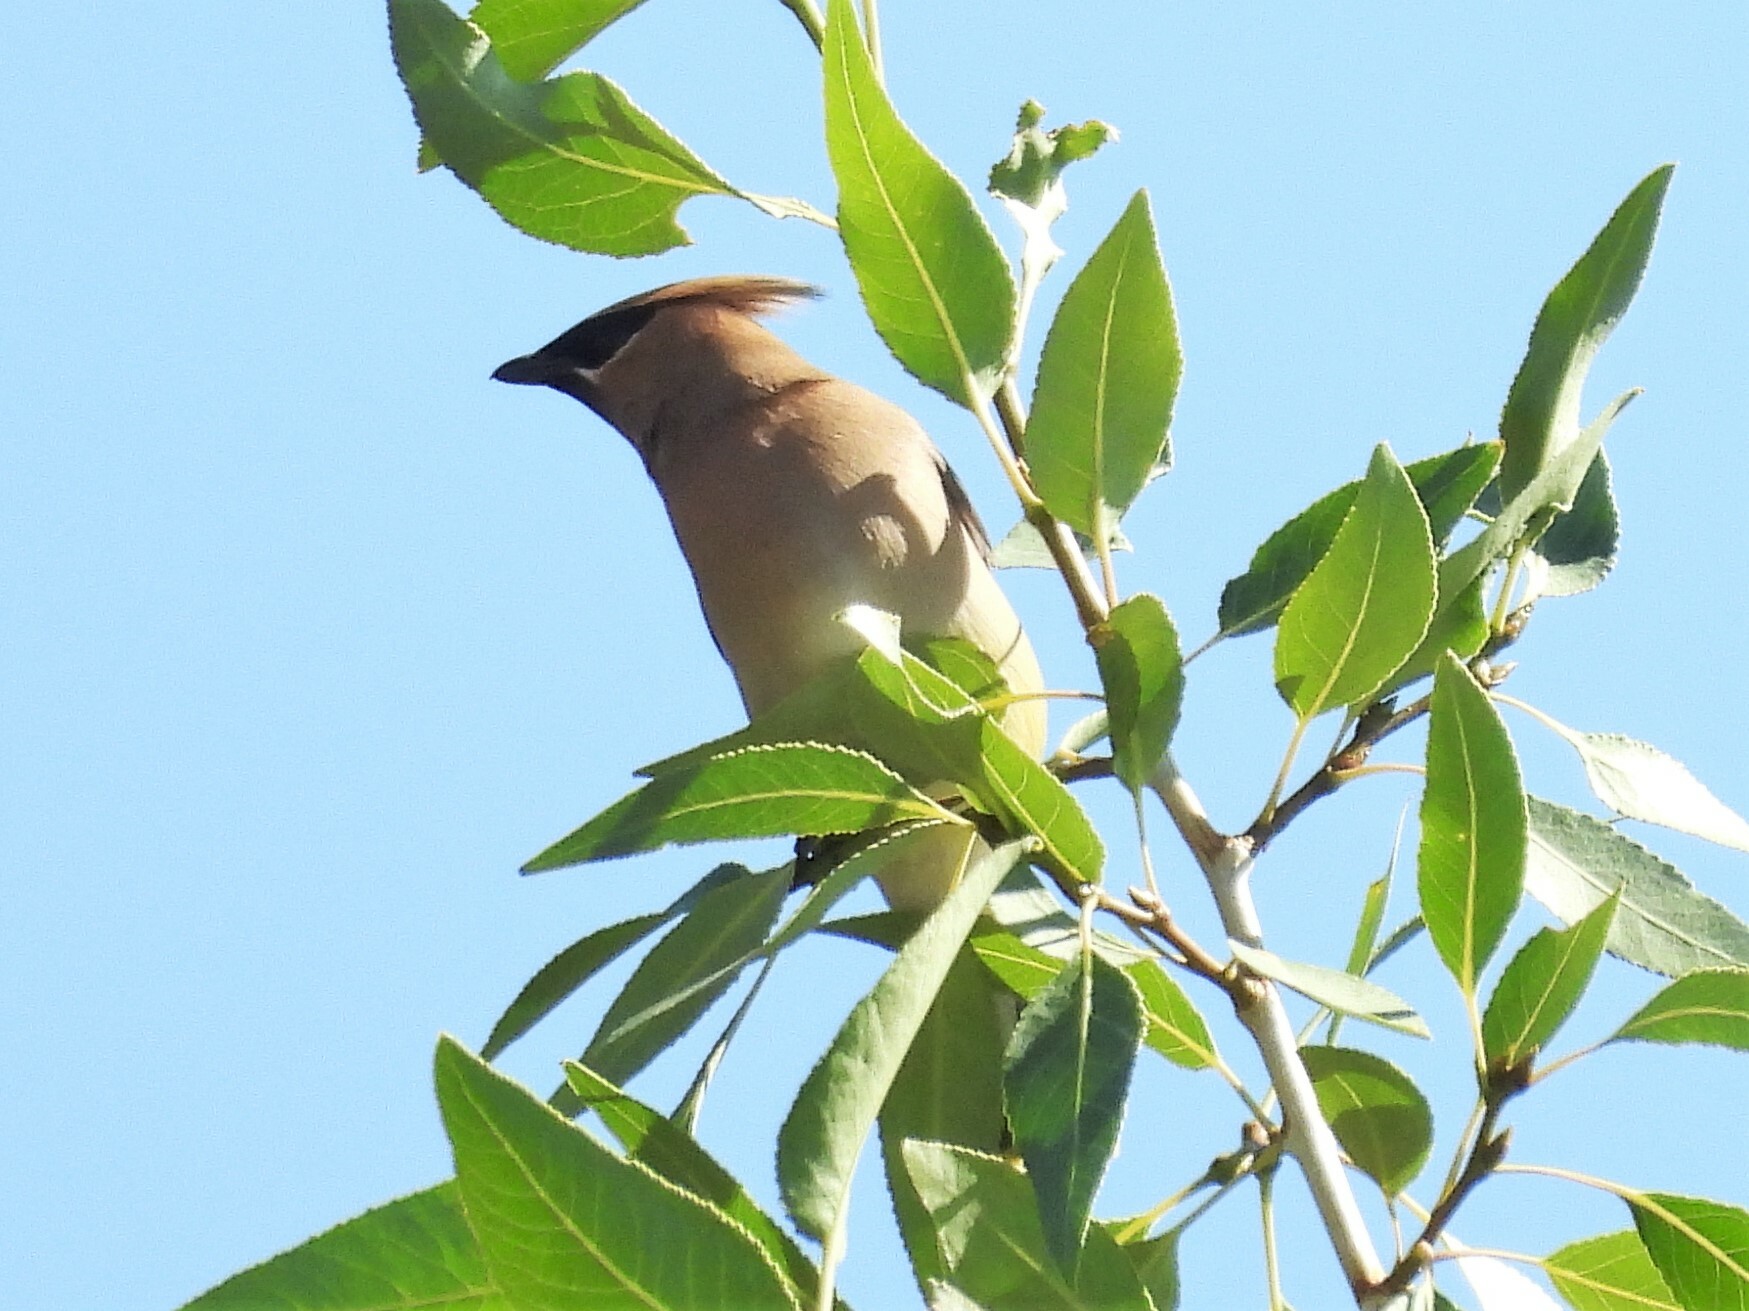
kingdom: Animalia
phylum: Chordata
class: Aves
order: Passeriformes
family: Bombycillidae
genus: Bombycilla
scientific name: Bombycilla cedrorum
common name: Cedar waxwing
